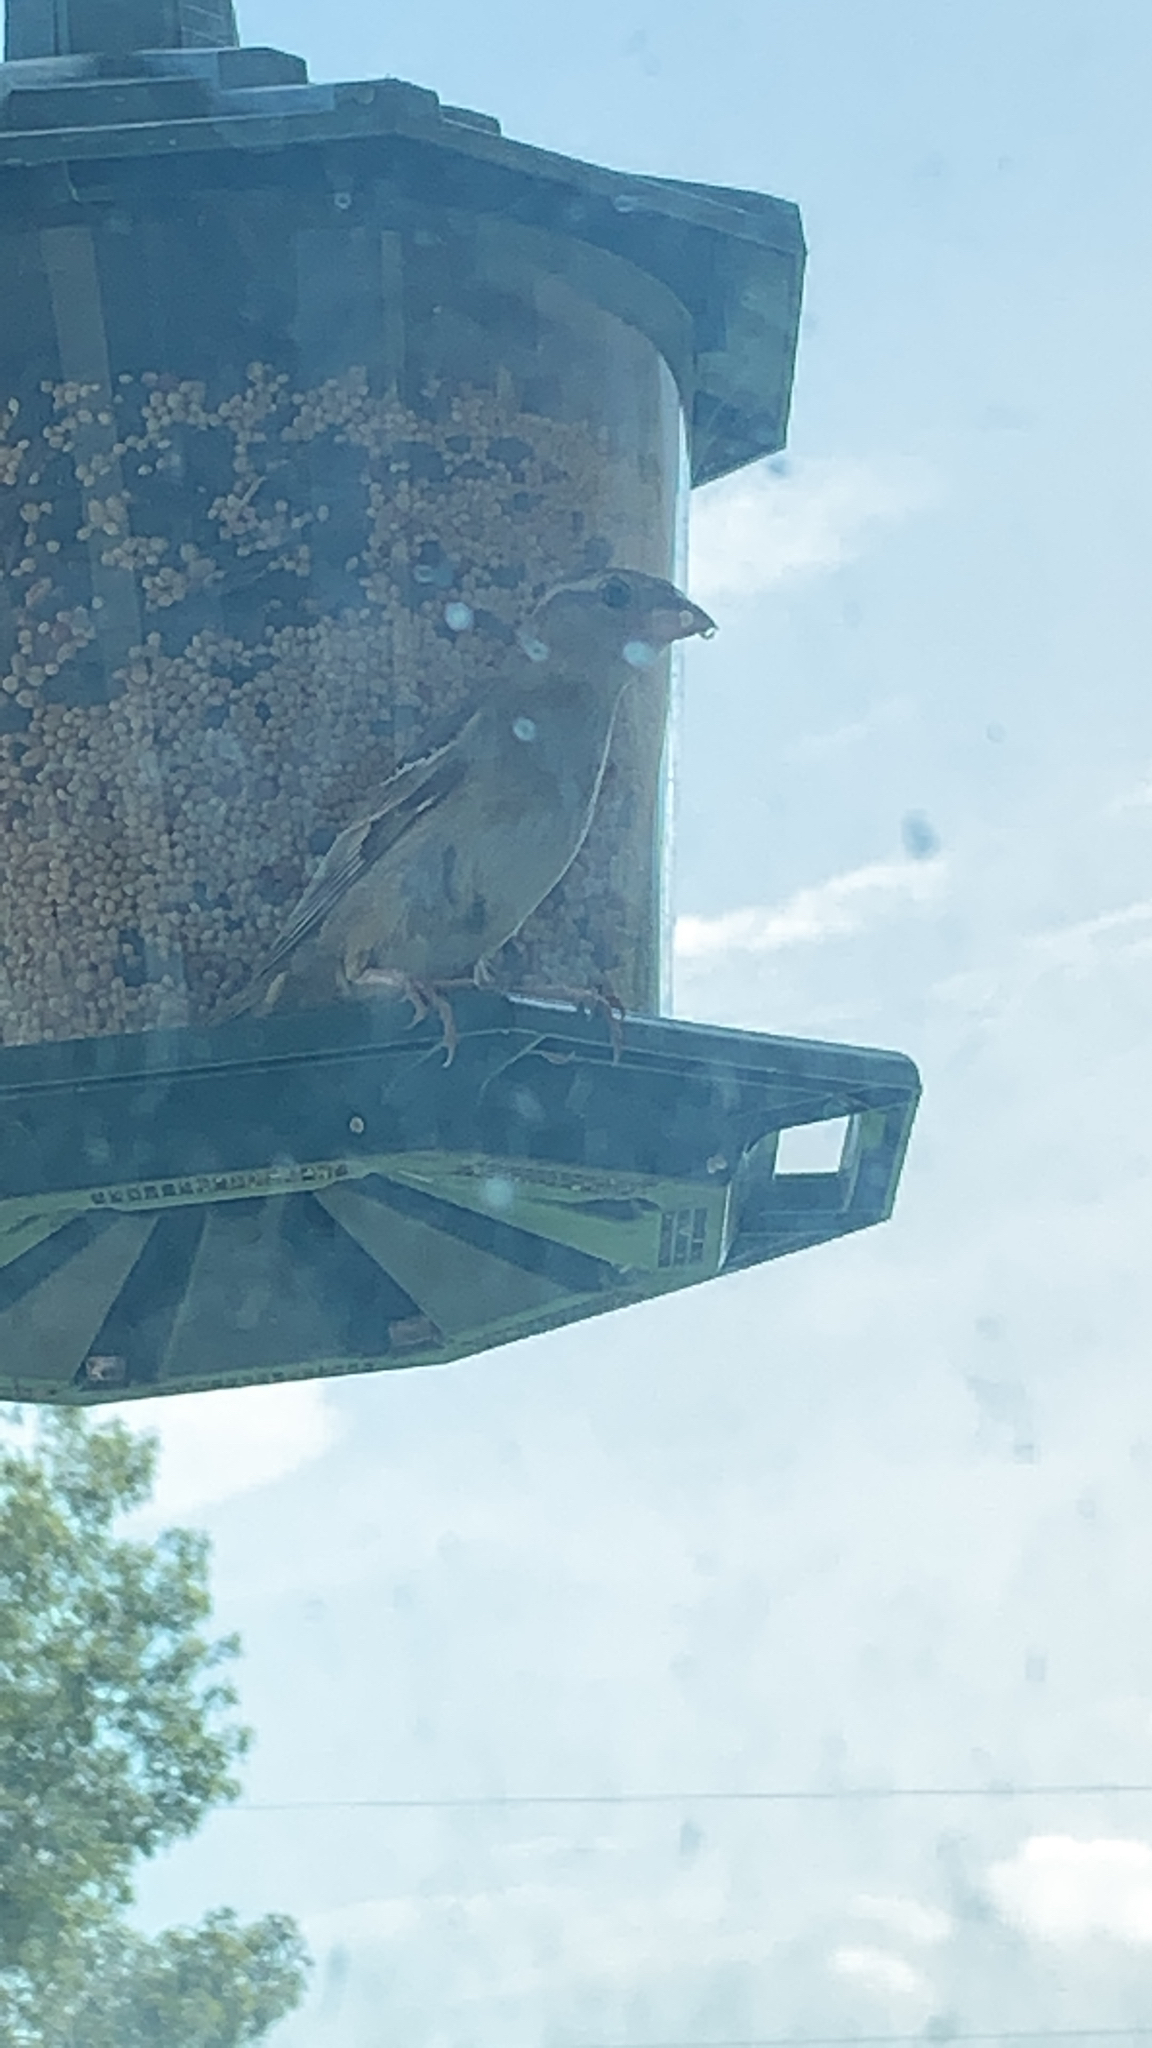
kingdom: Animalia
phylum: Chordata
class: Aves
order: Passeriformes
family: Passeridae
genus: Passer
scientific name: Passer domesticus
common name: House sparrow
